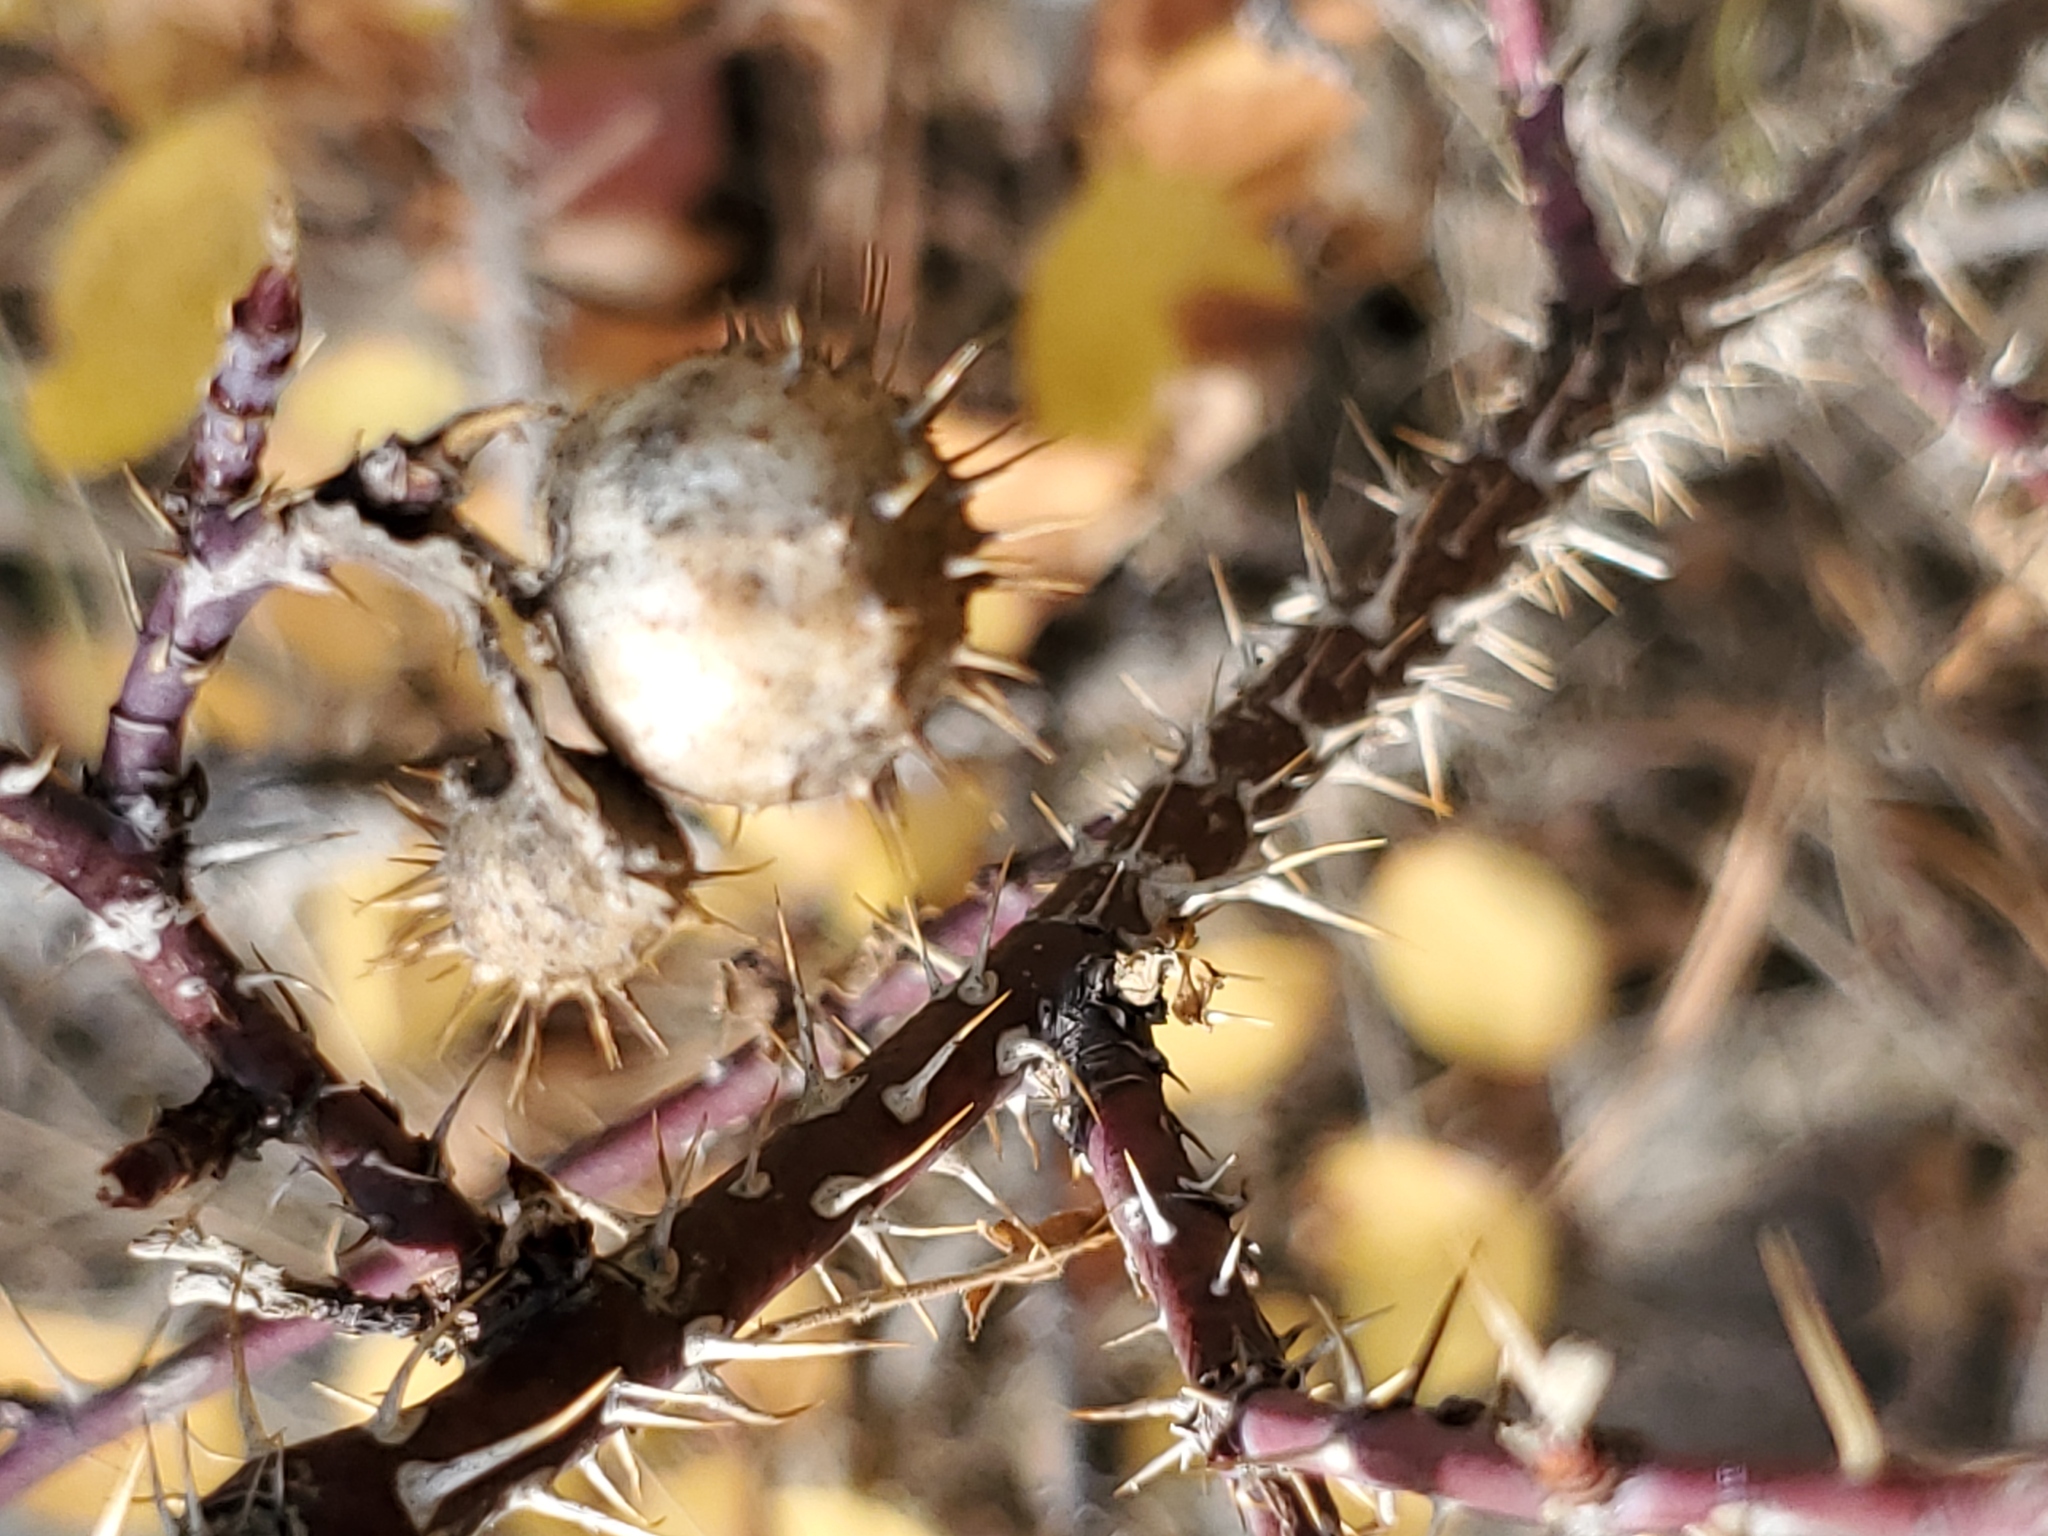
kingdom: Animalia
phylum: Arthropoda
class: Insecta
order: Hymenoptera
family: Cynipidae
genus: Diplolepis
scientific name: Diplolepis polita
